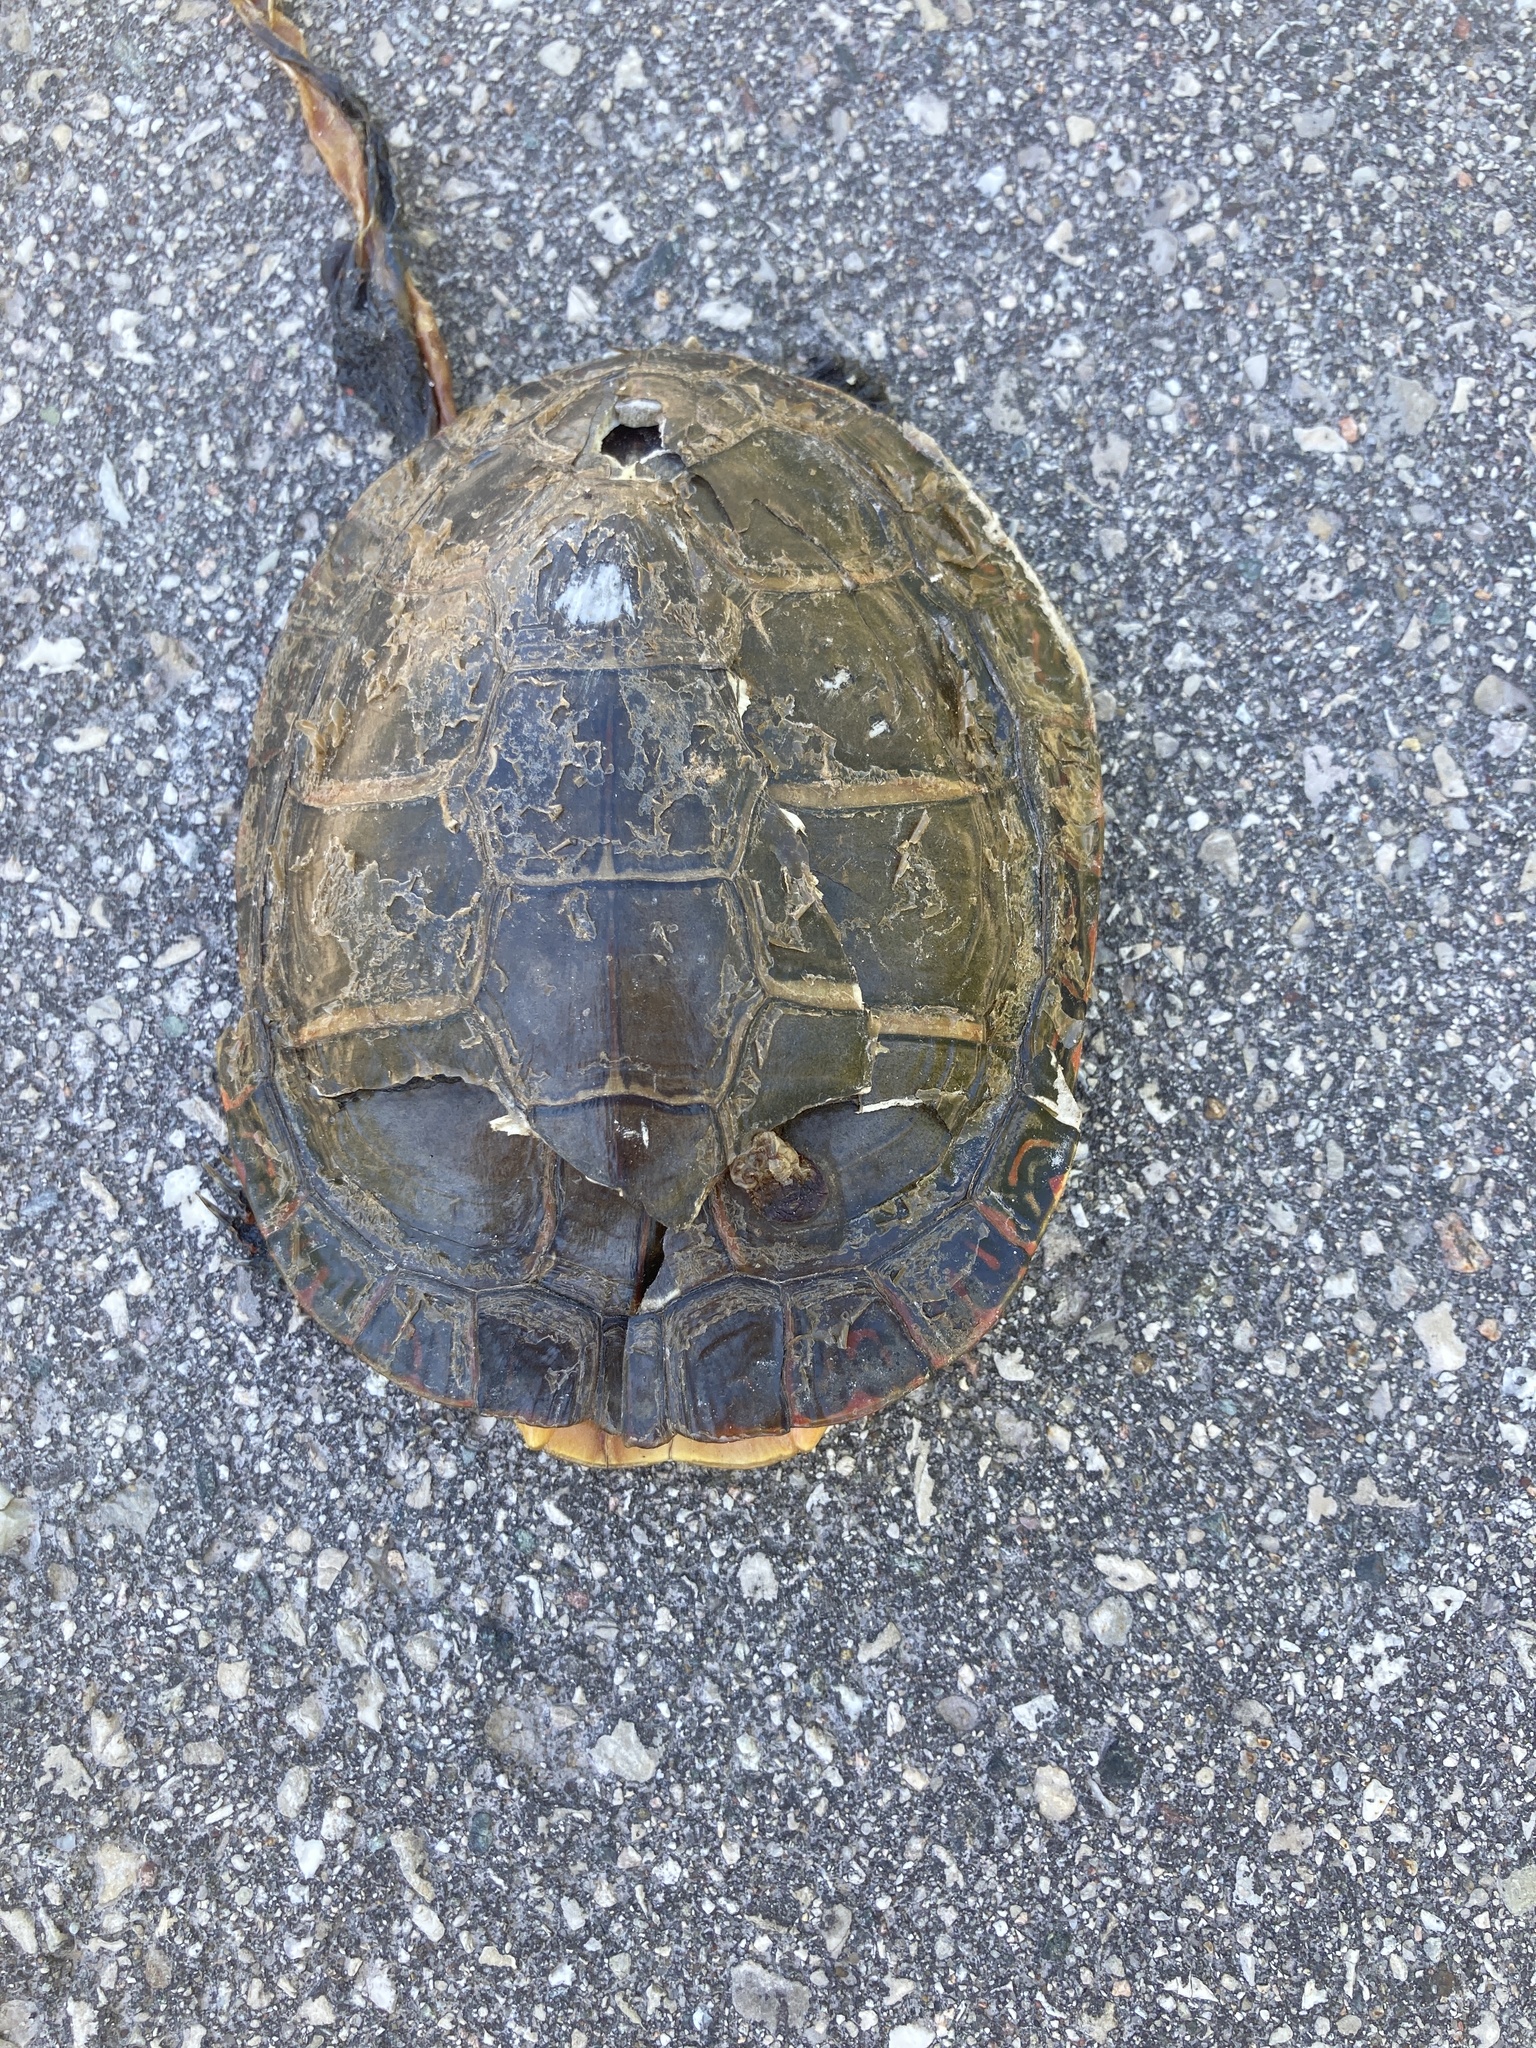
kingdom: Animalia
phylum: Chordata
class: Testudines
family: Emydidae
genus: Chrysemys
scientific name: Chrysemys picta
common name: Painted turtle
